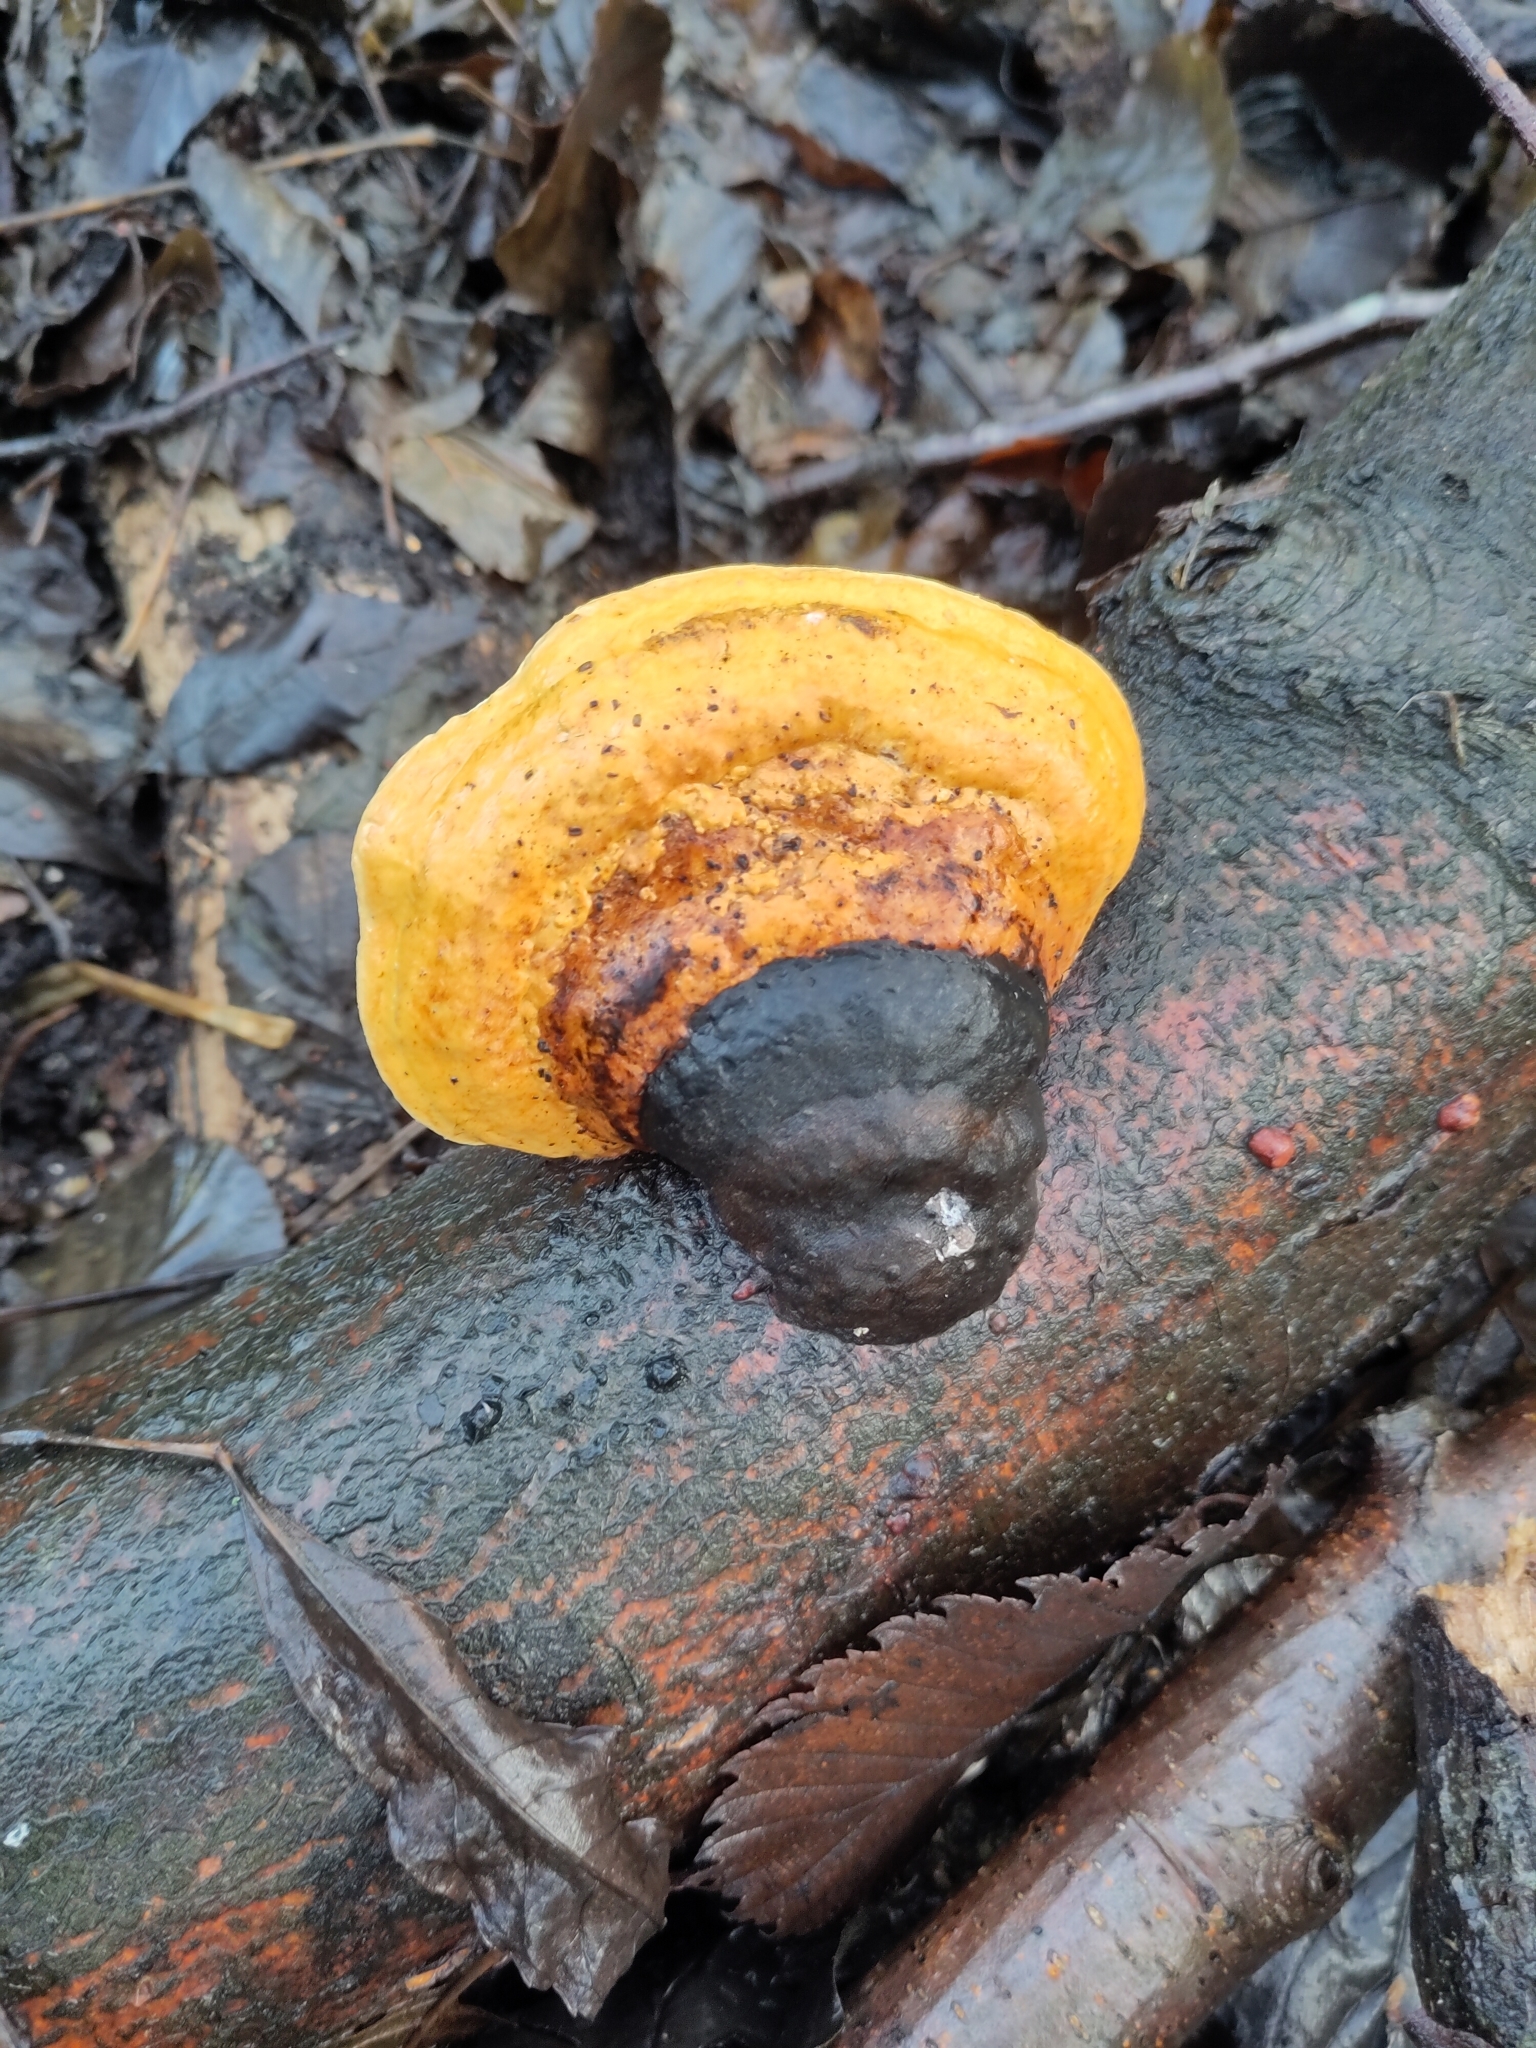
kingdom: Fungi
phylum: Basidiomycota
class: Agaricomycetes
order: Polyporales
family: Fomitopsidaceae
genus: Fomitopsis
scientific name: Fomitopsis pinicola
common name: Red-belted bracket
